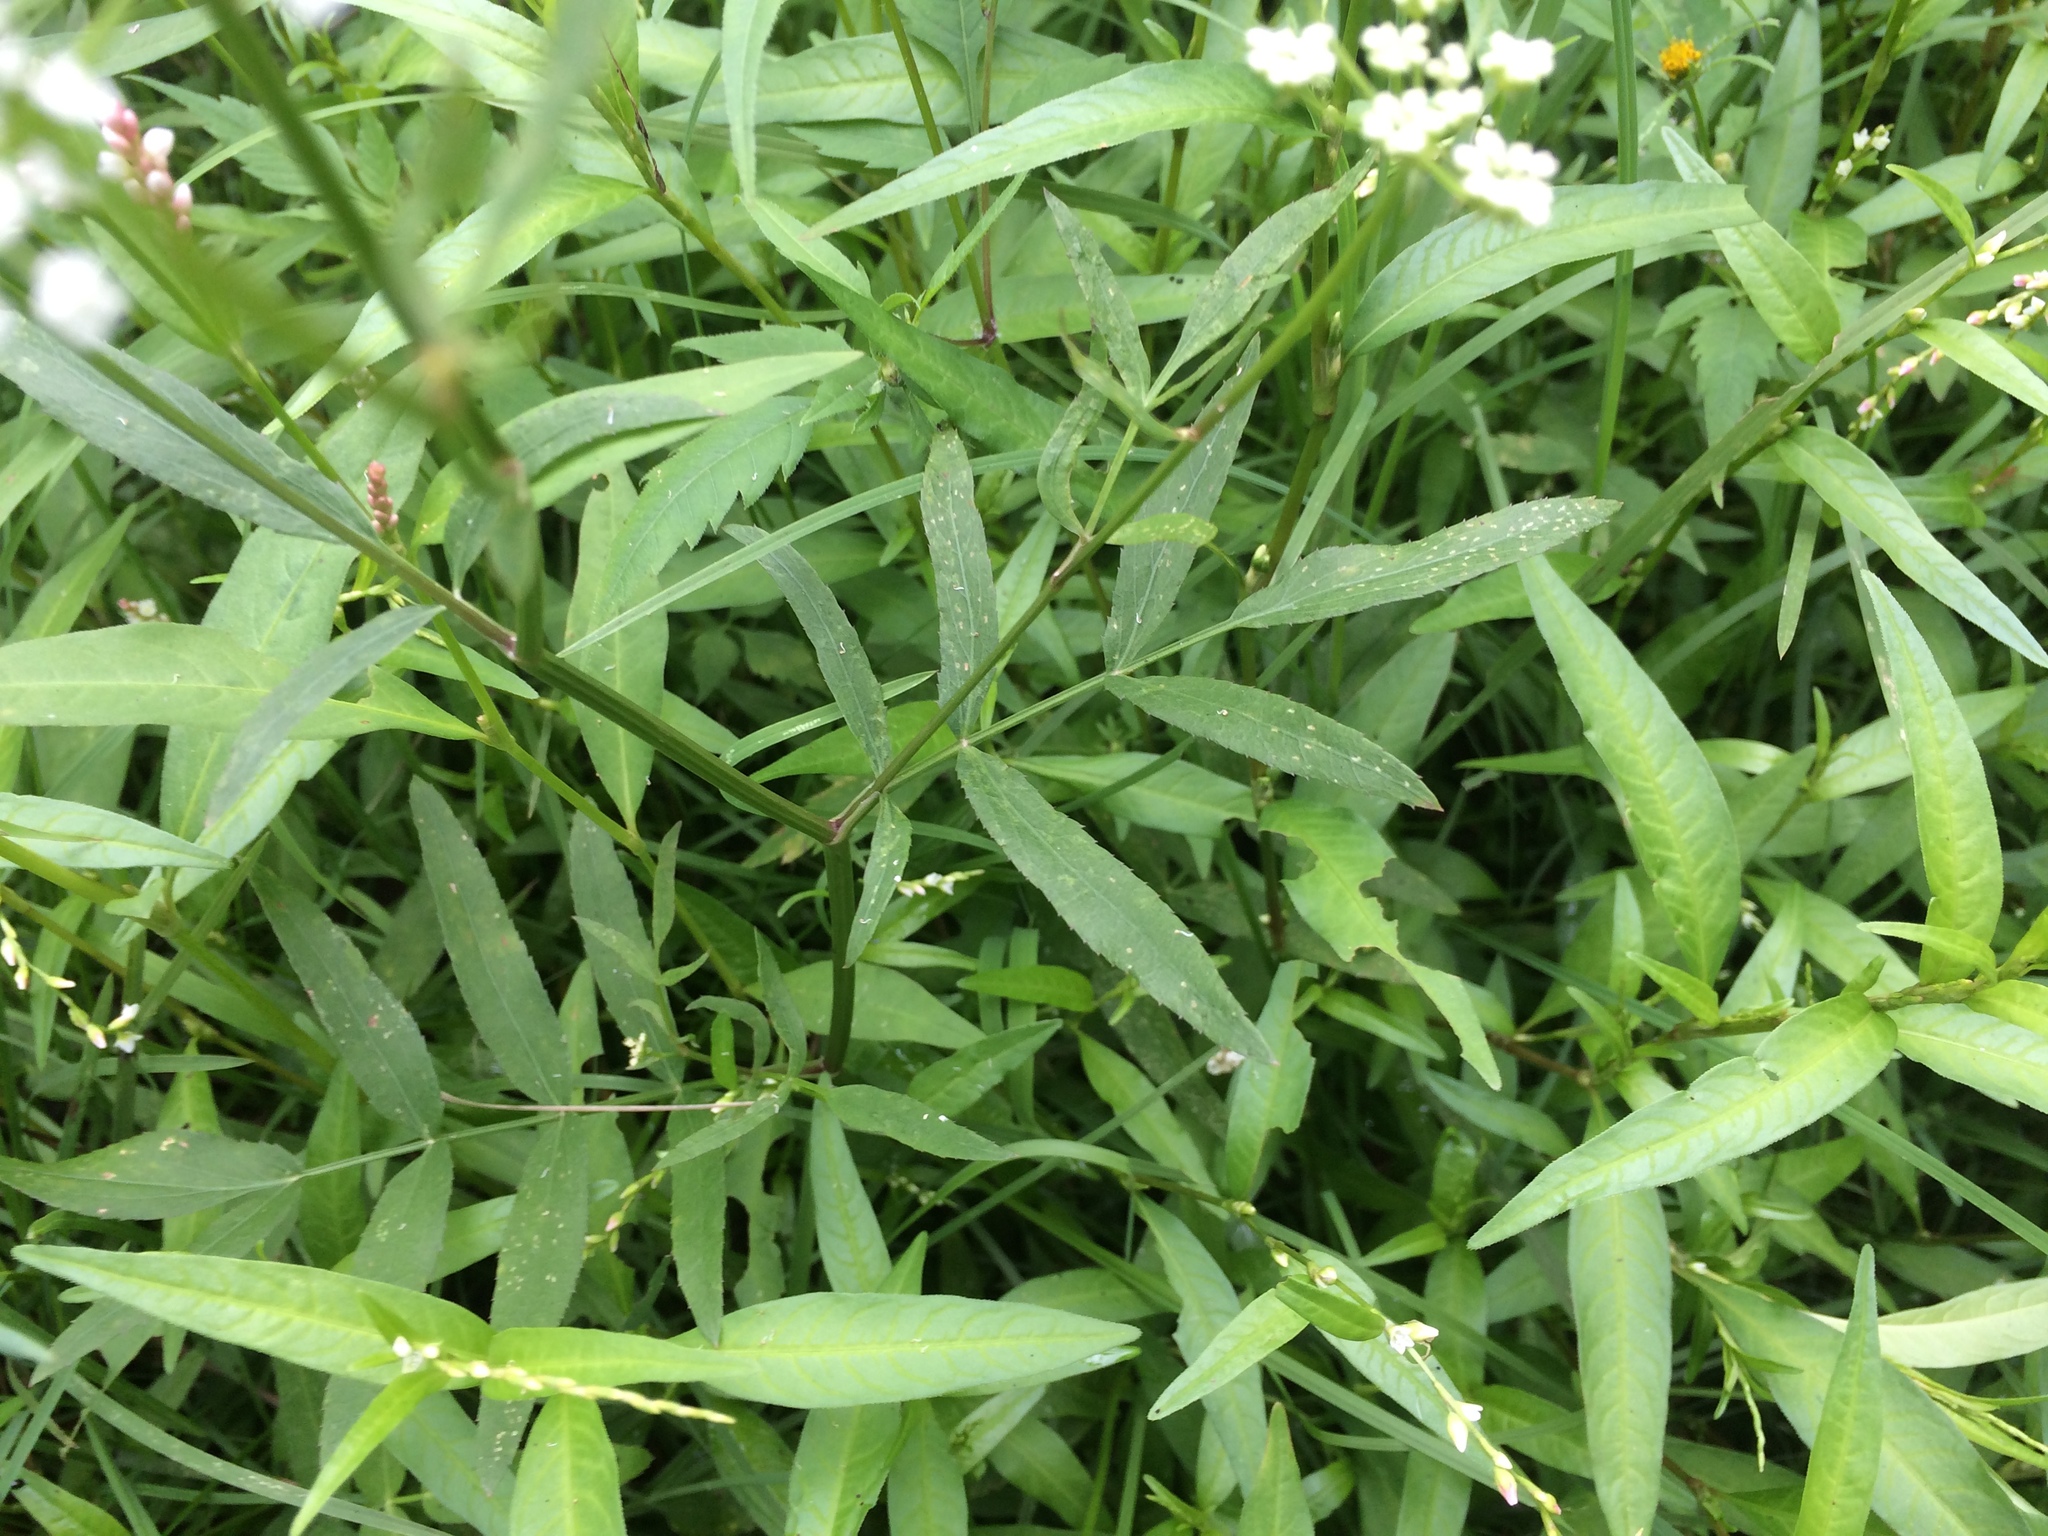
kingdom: Plantae
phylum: Tracheophyta
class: Magnoliopsida
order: Apiales
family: Apiaceae
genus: Sium
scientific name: Sium suave
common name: Hemlock water-parsnip
